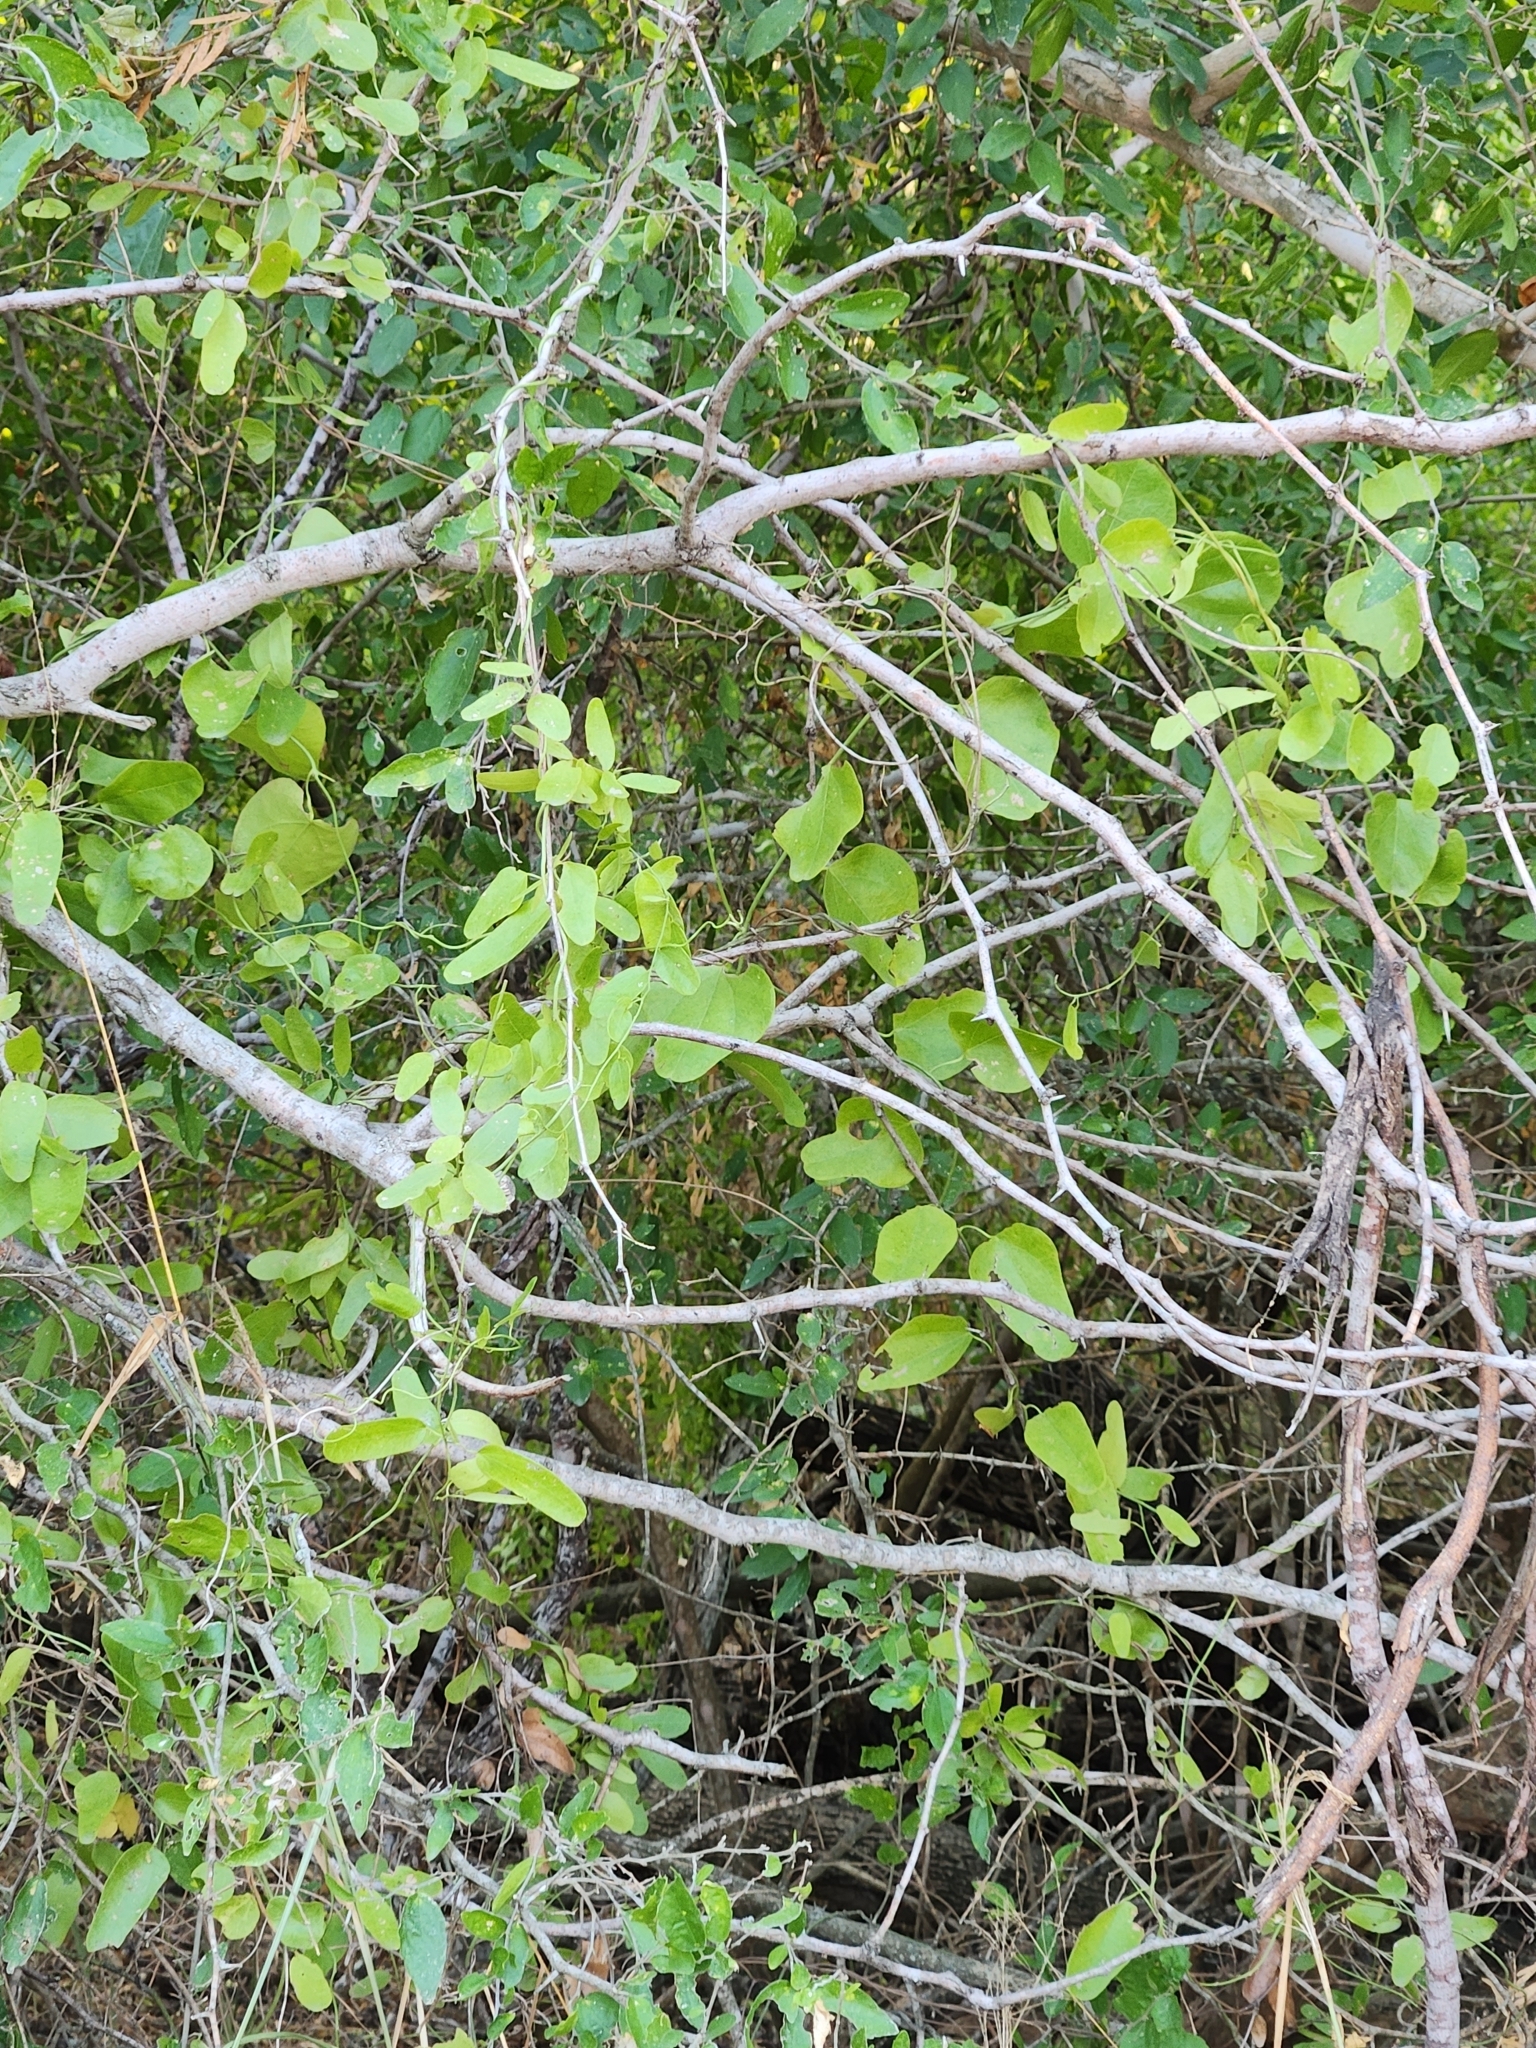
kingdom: Plantae
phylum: Tracheophyta
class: Liliopsida
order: Liliales
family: Smilacaceae
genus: Smilax
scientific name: Smilax bona-nox
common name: Catbrier
